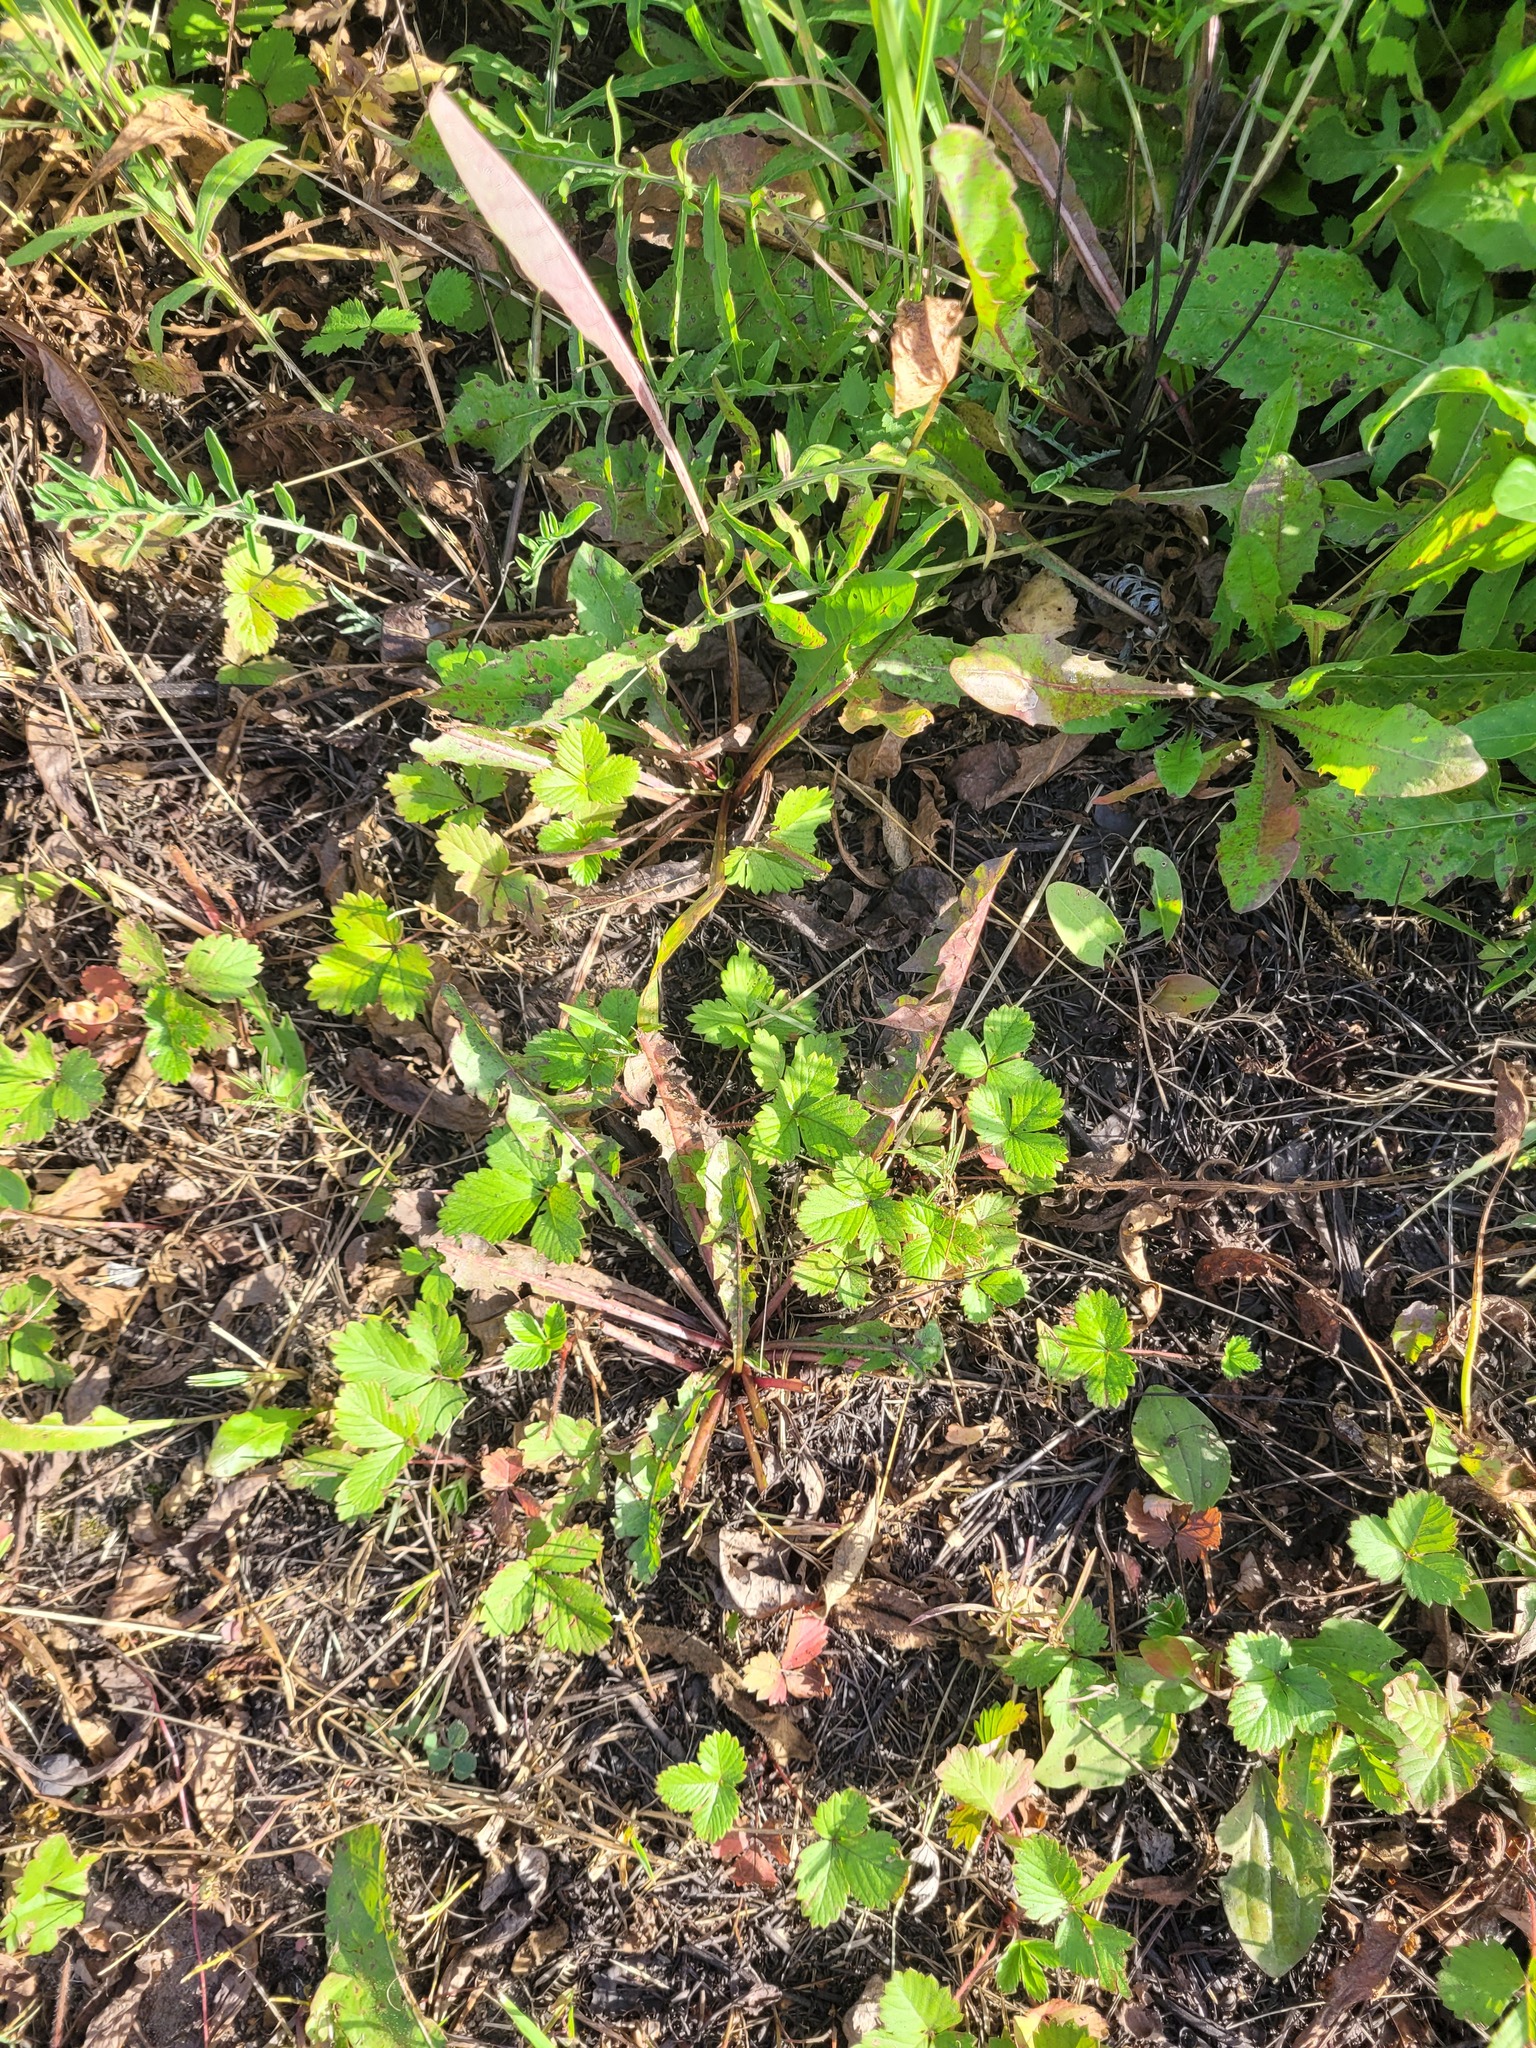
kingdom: Plantae
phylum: Tracheophyta
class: Magnoliopsida
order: Rosales
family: Rosaceae
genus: Fragaria
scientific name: Fragaria vesca
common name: Wild strawberry
